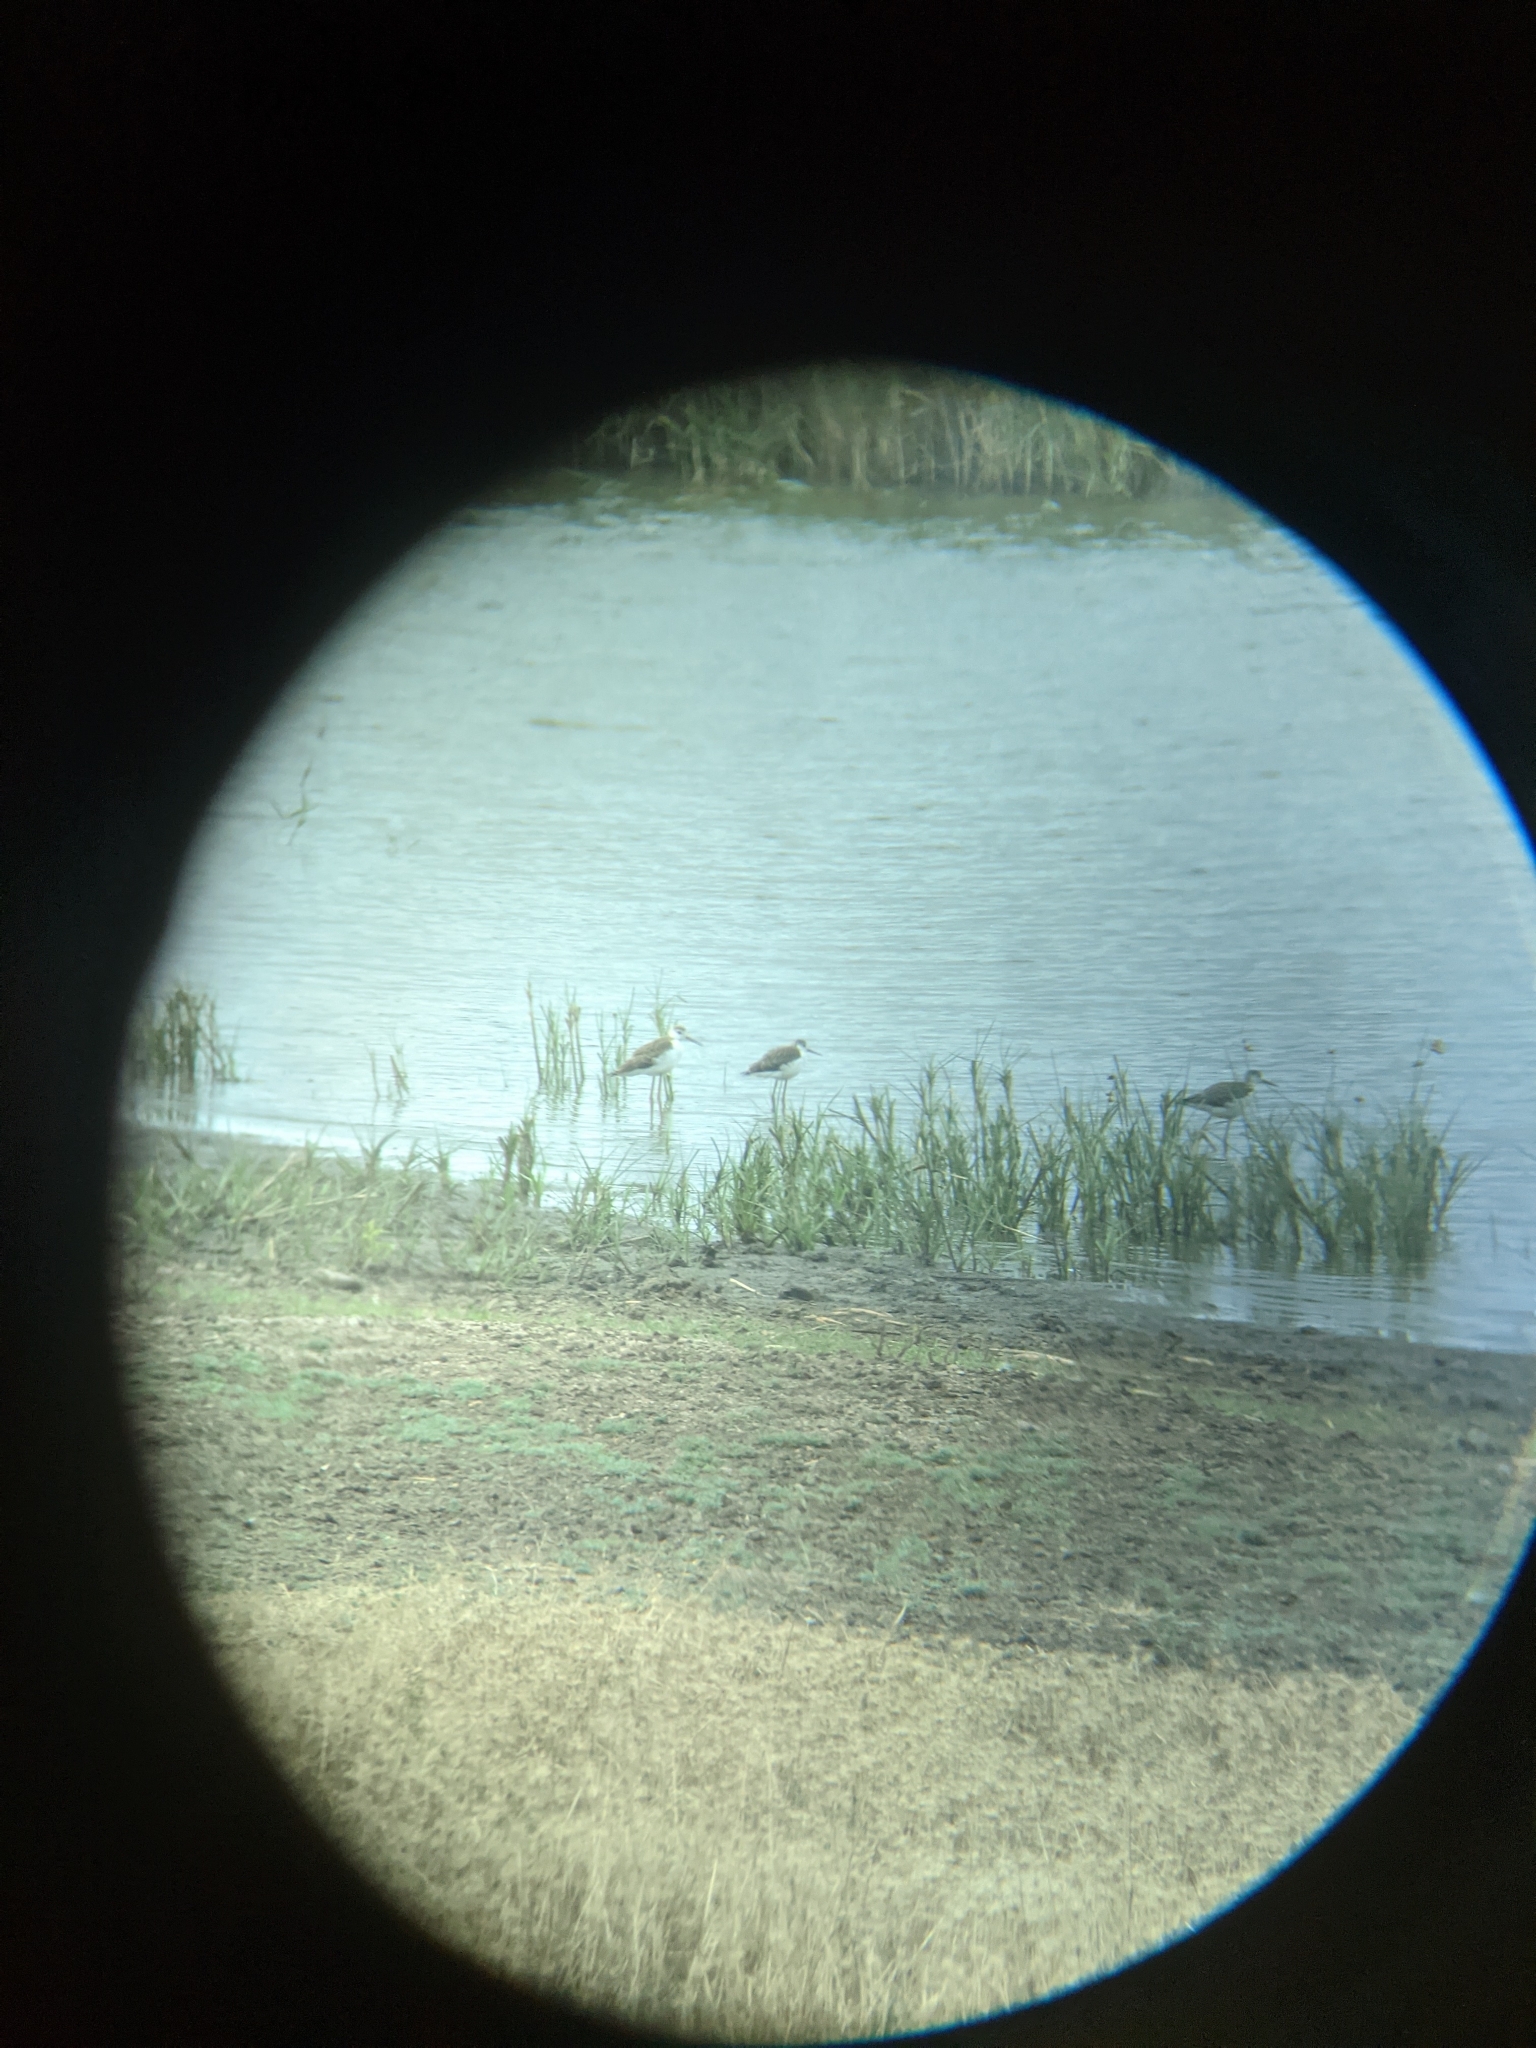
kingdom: Animalia
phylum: Chordata
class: Aves
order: Charadriiformes
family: Recurvirostridae
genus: Himantopus
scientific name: Himantopus himantopus
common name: Black-winged stilt
